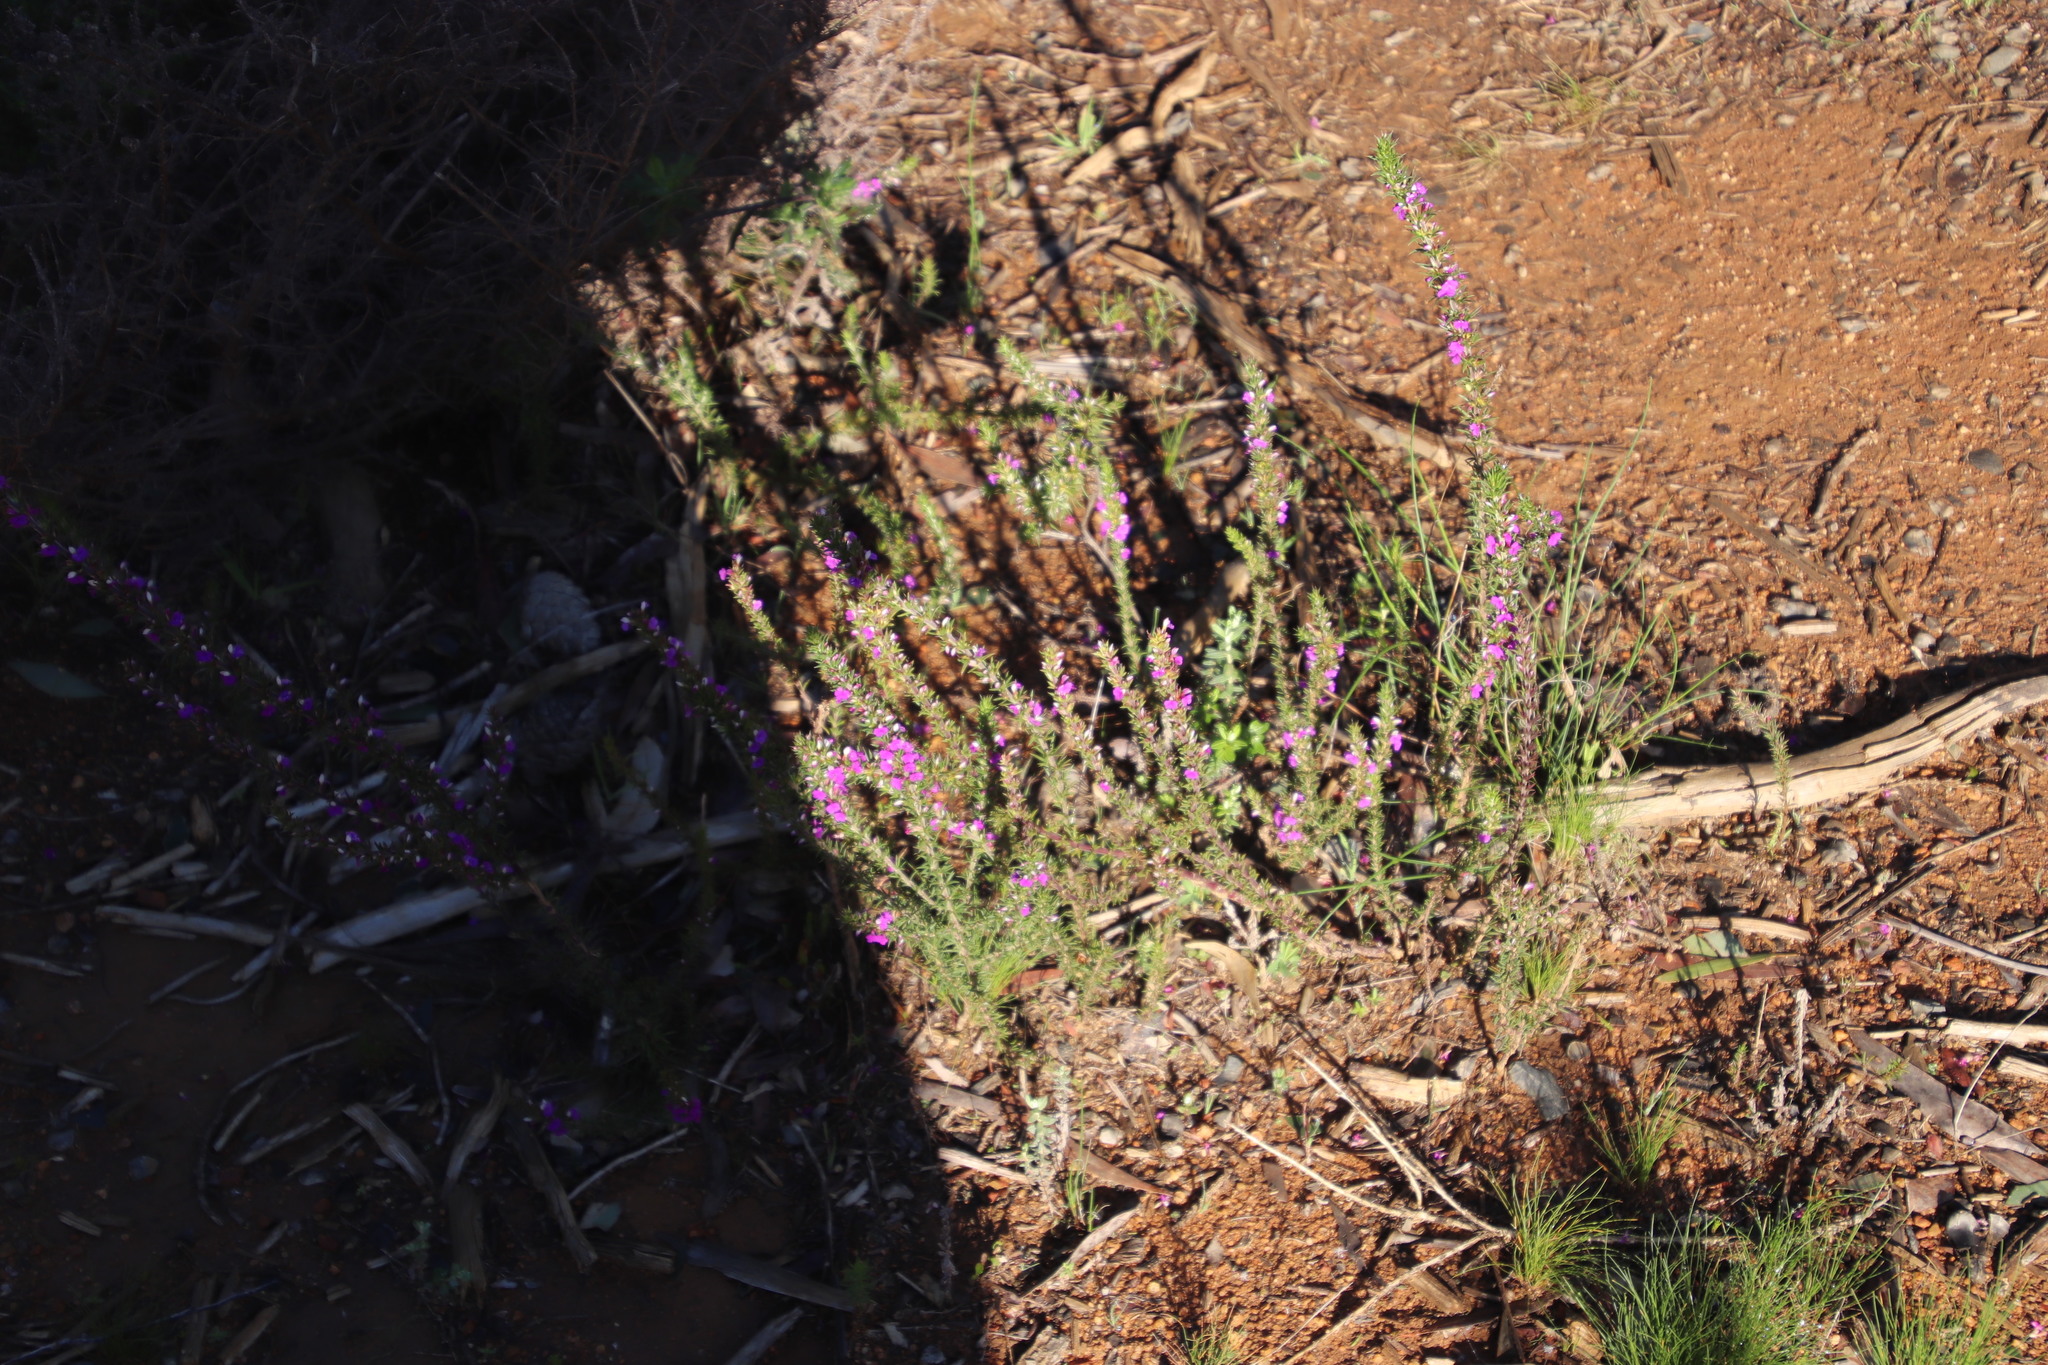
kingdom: Plantae
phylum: Tracheophyta
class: Magnoliopsida
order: Fabales
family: Polygalaceae
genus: Muraltia
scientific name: Muraltia heisteria
